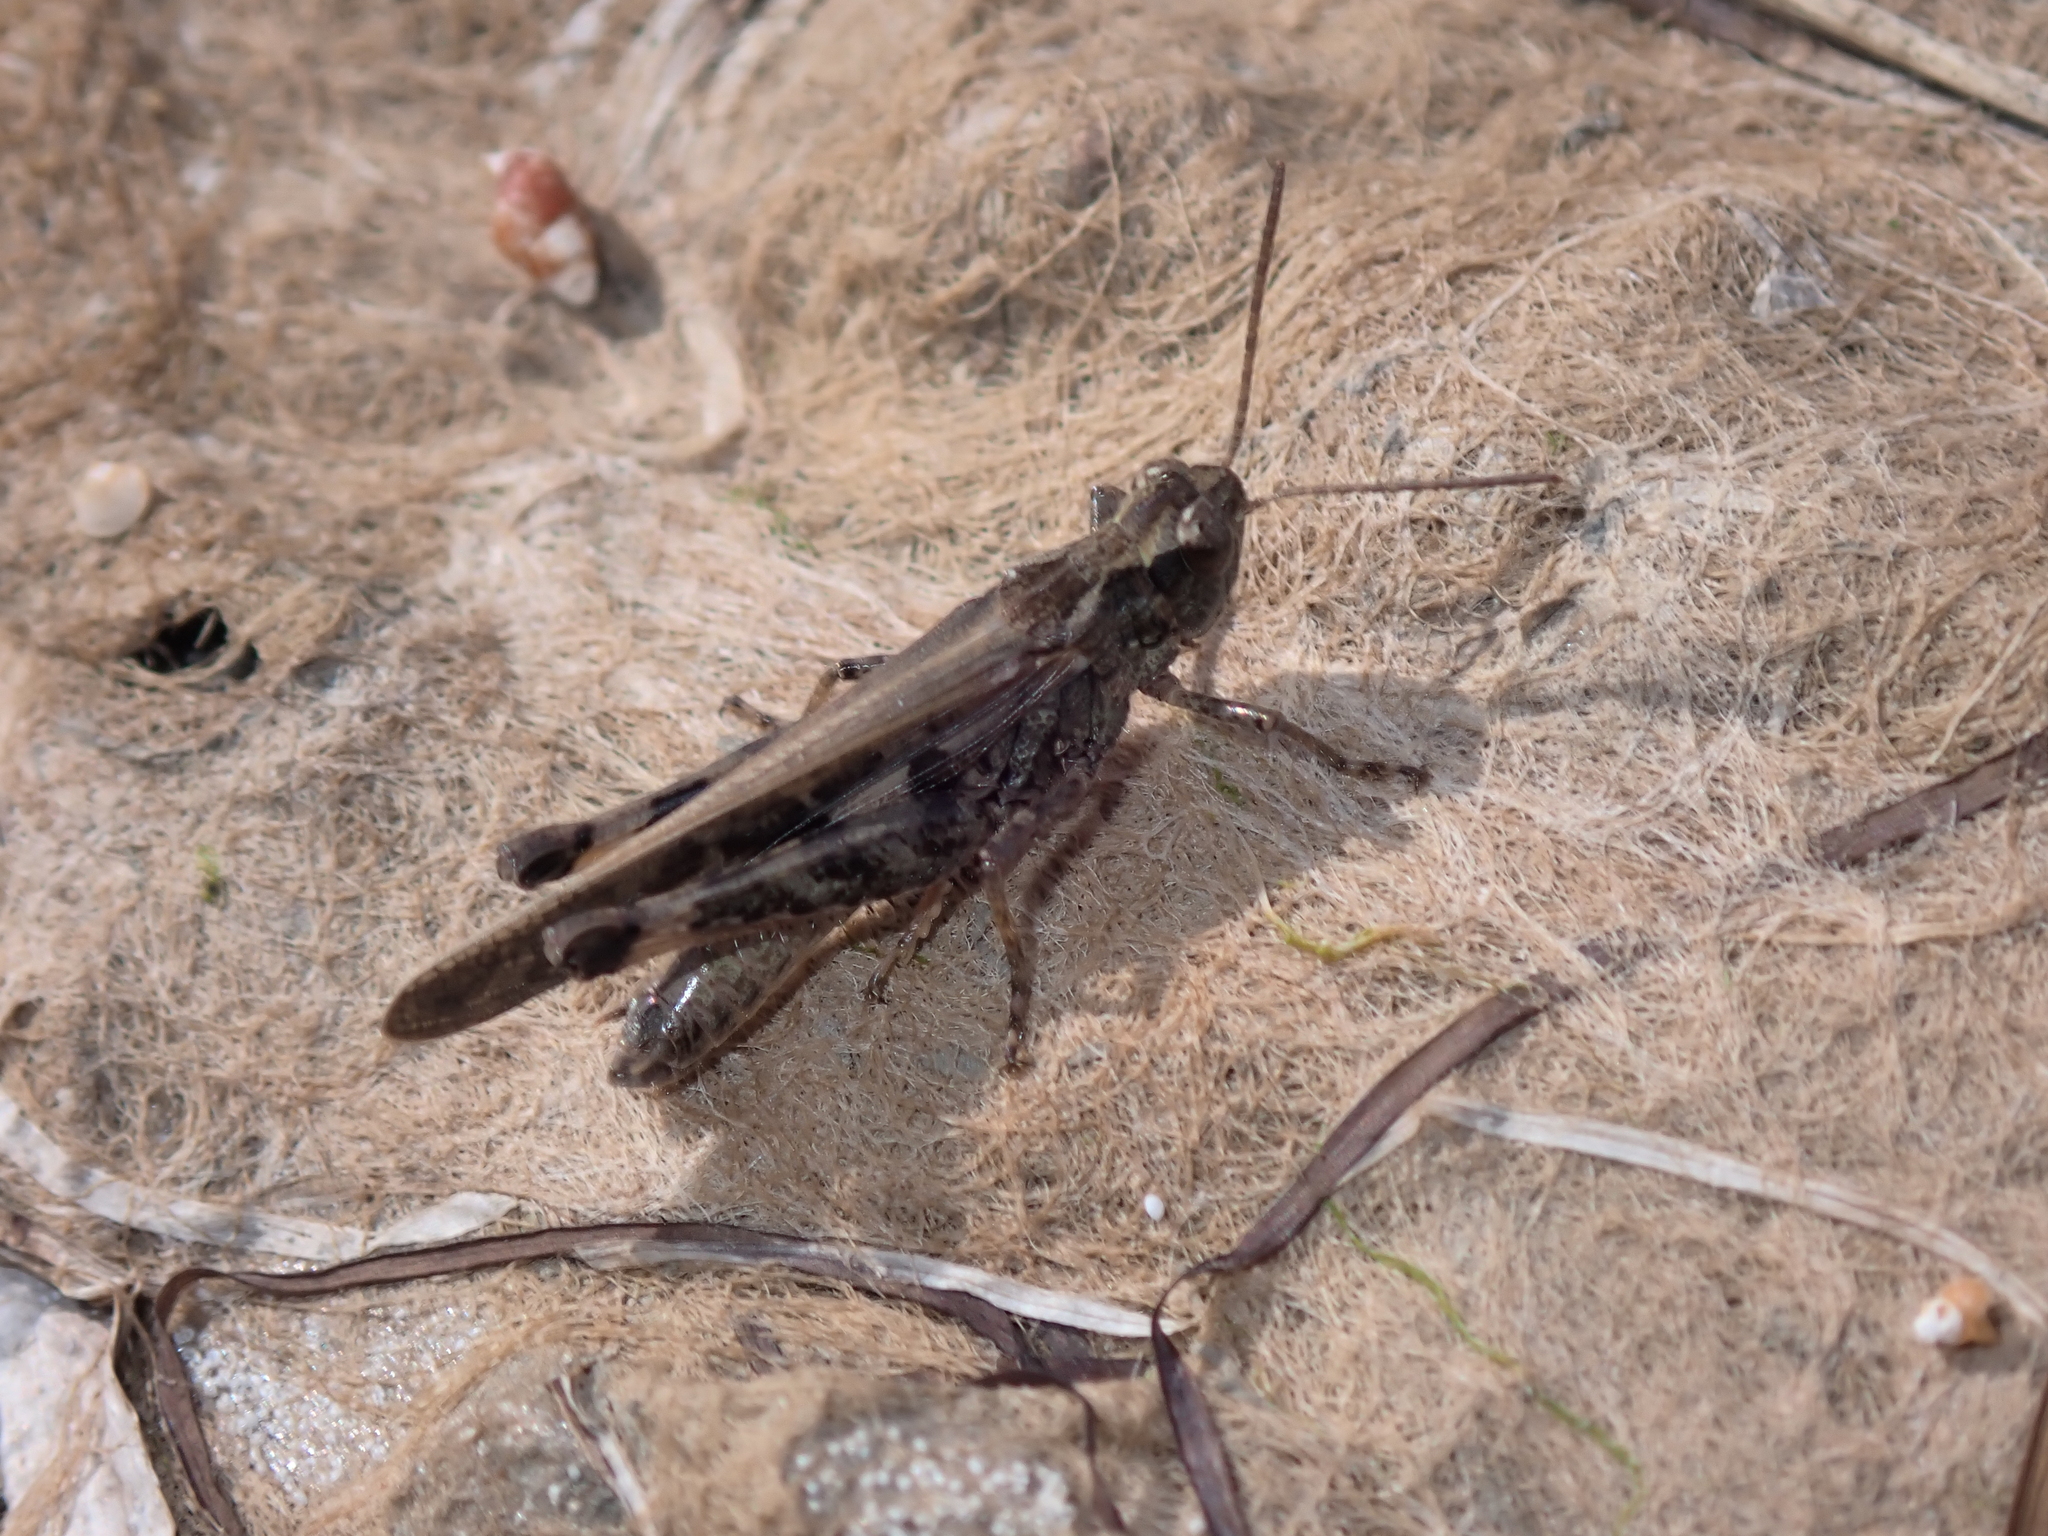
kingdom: Animalia
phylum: Arthropoda
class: Insecta
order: Orthoptera
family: Acrididae
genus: Aiolopus
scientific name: Aiolopus thalassinus
